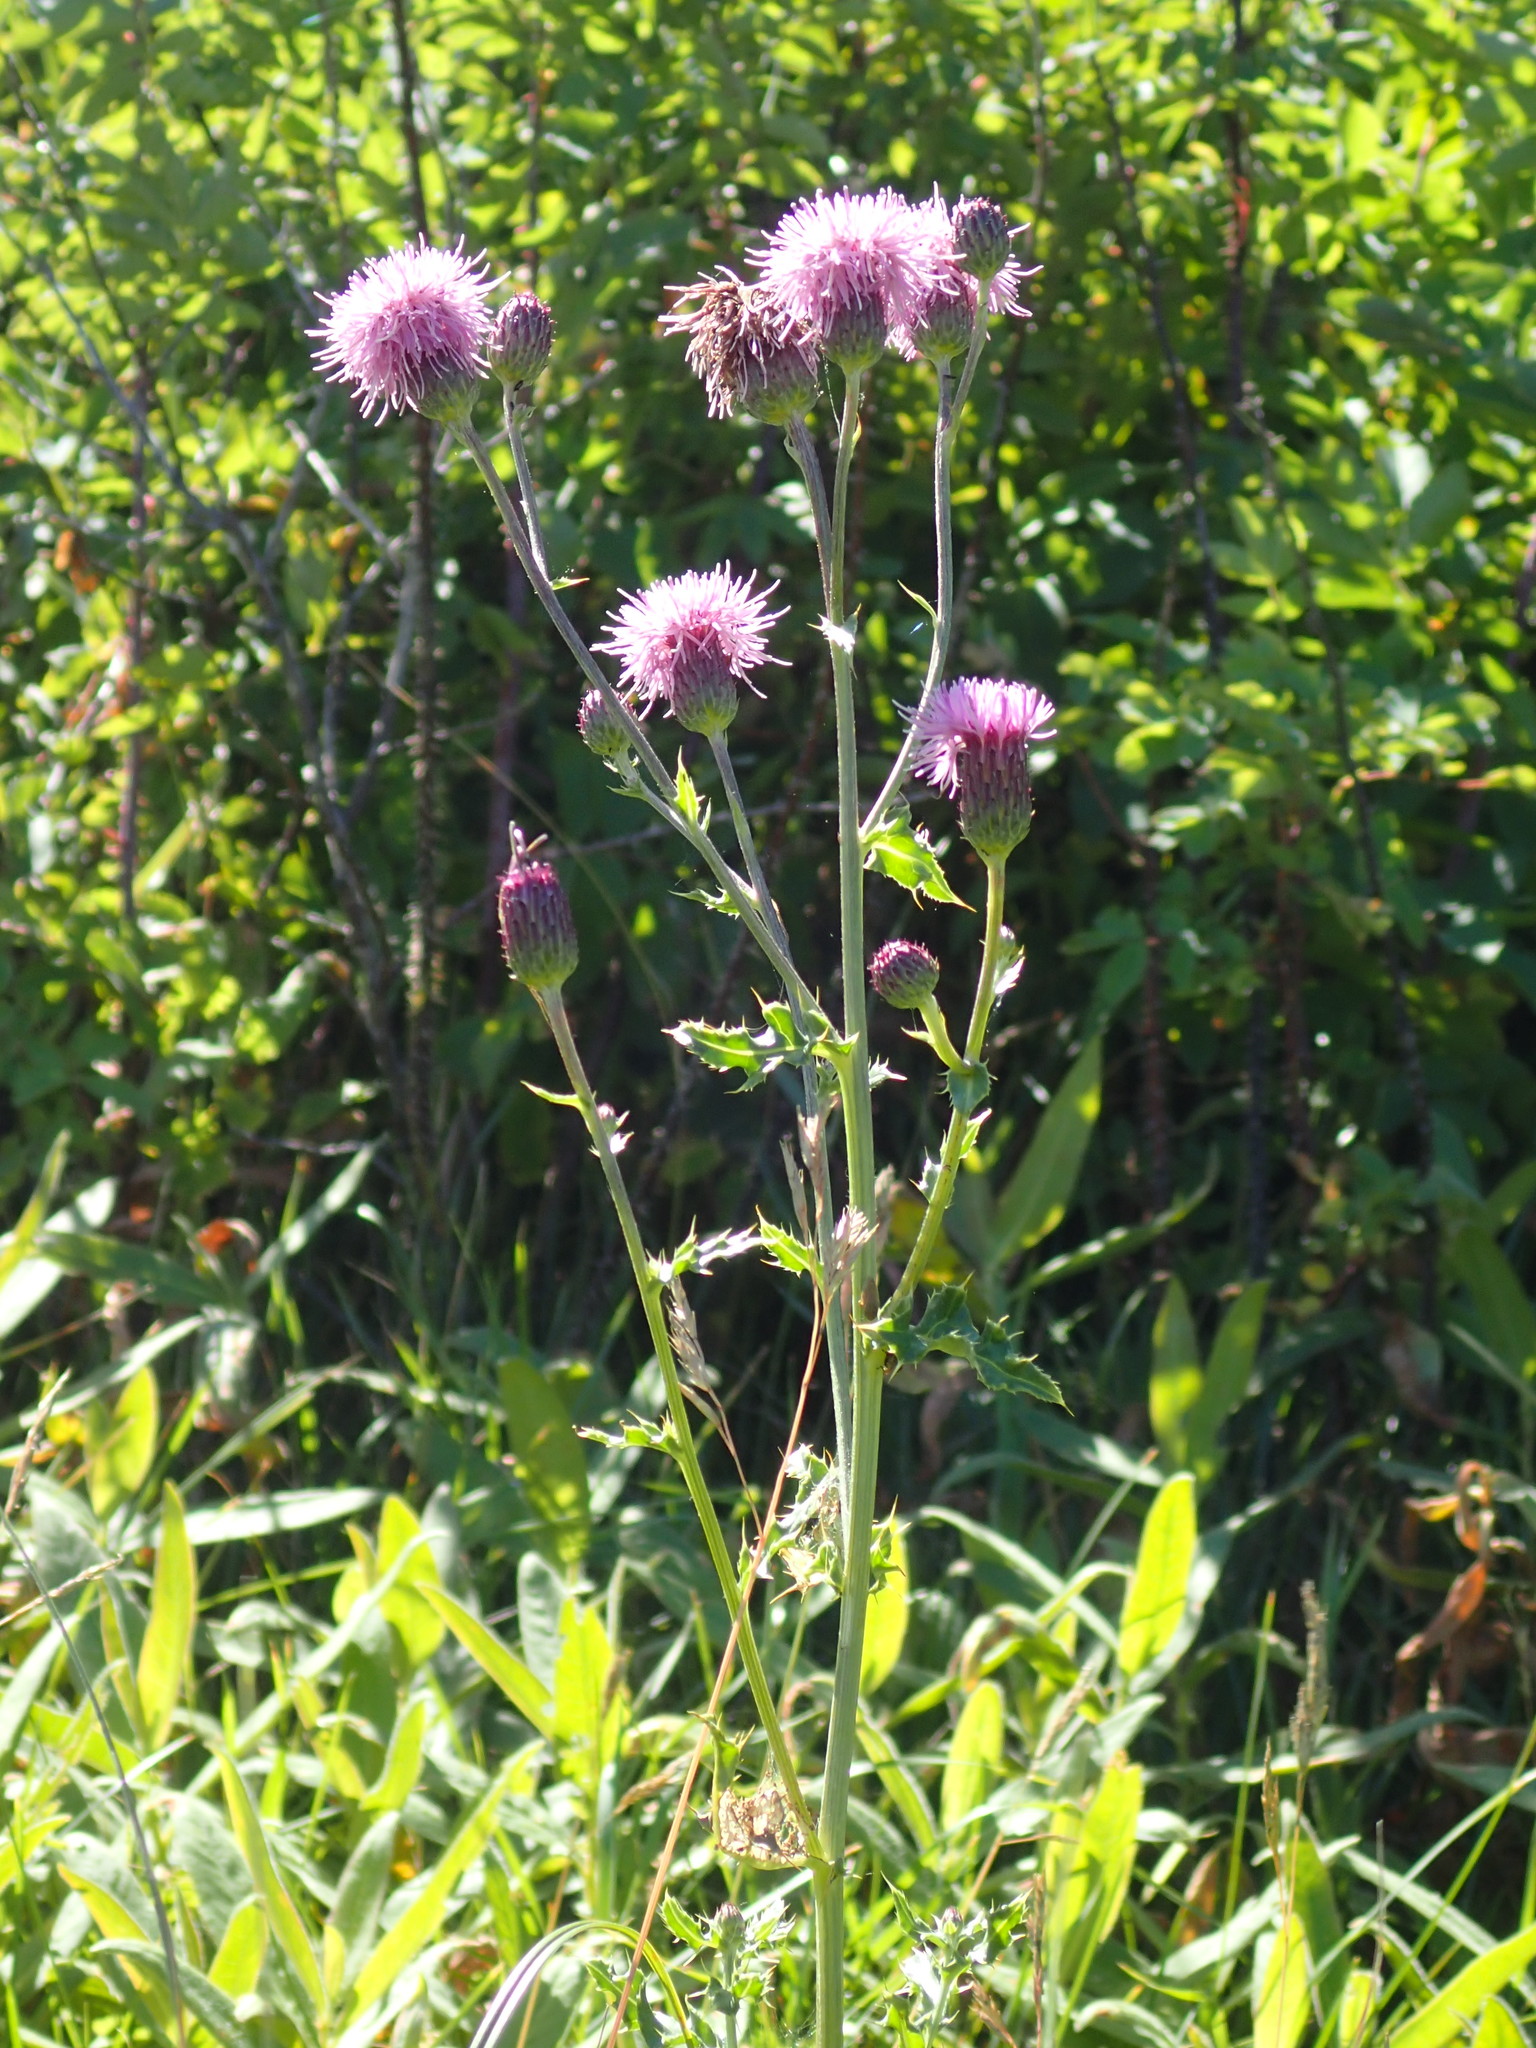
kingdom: Plantae
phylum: Tracheophyta
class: Magnoliopsida
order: Asterales
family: Asteraceae
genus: Cirsium
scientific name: Cirsium arvense
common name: Creeping thistle
